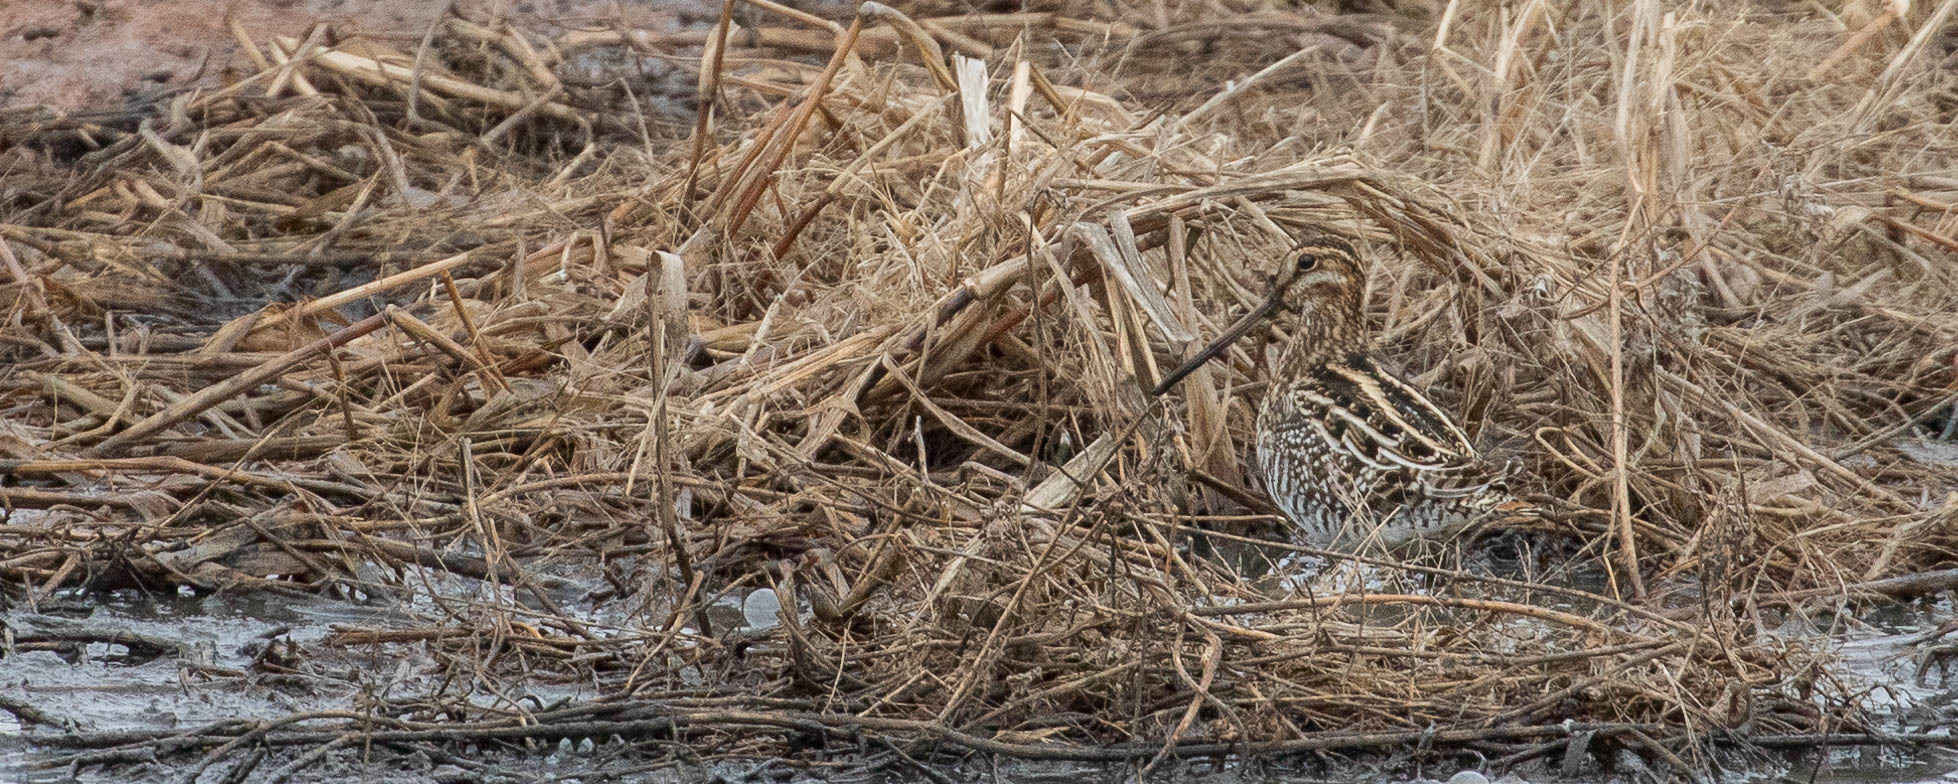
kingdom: Animalia
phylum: Chordata
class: Aves
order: Charadriiformes
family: Scolopacidae
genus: Gallinago
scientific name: Gallinago delicata
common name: Wilson's snipe
